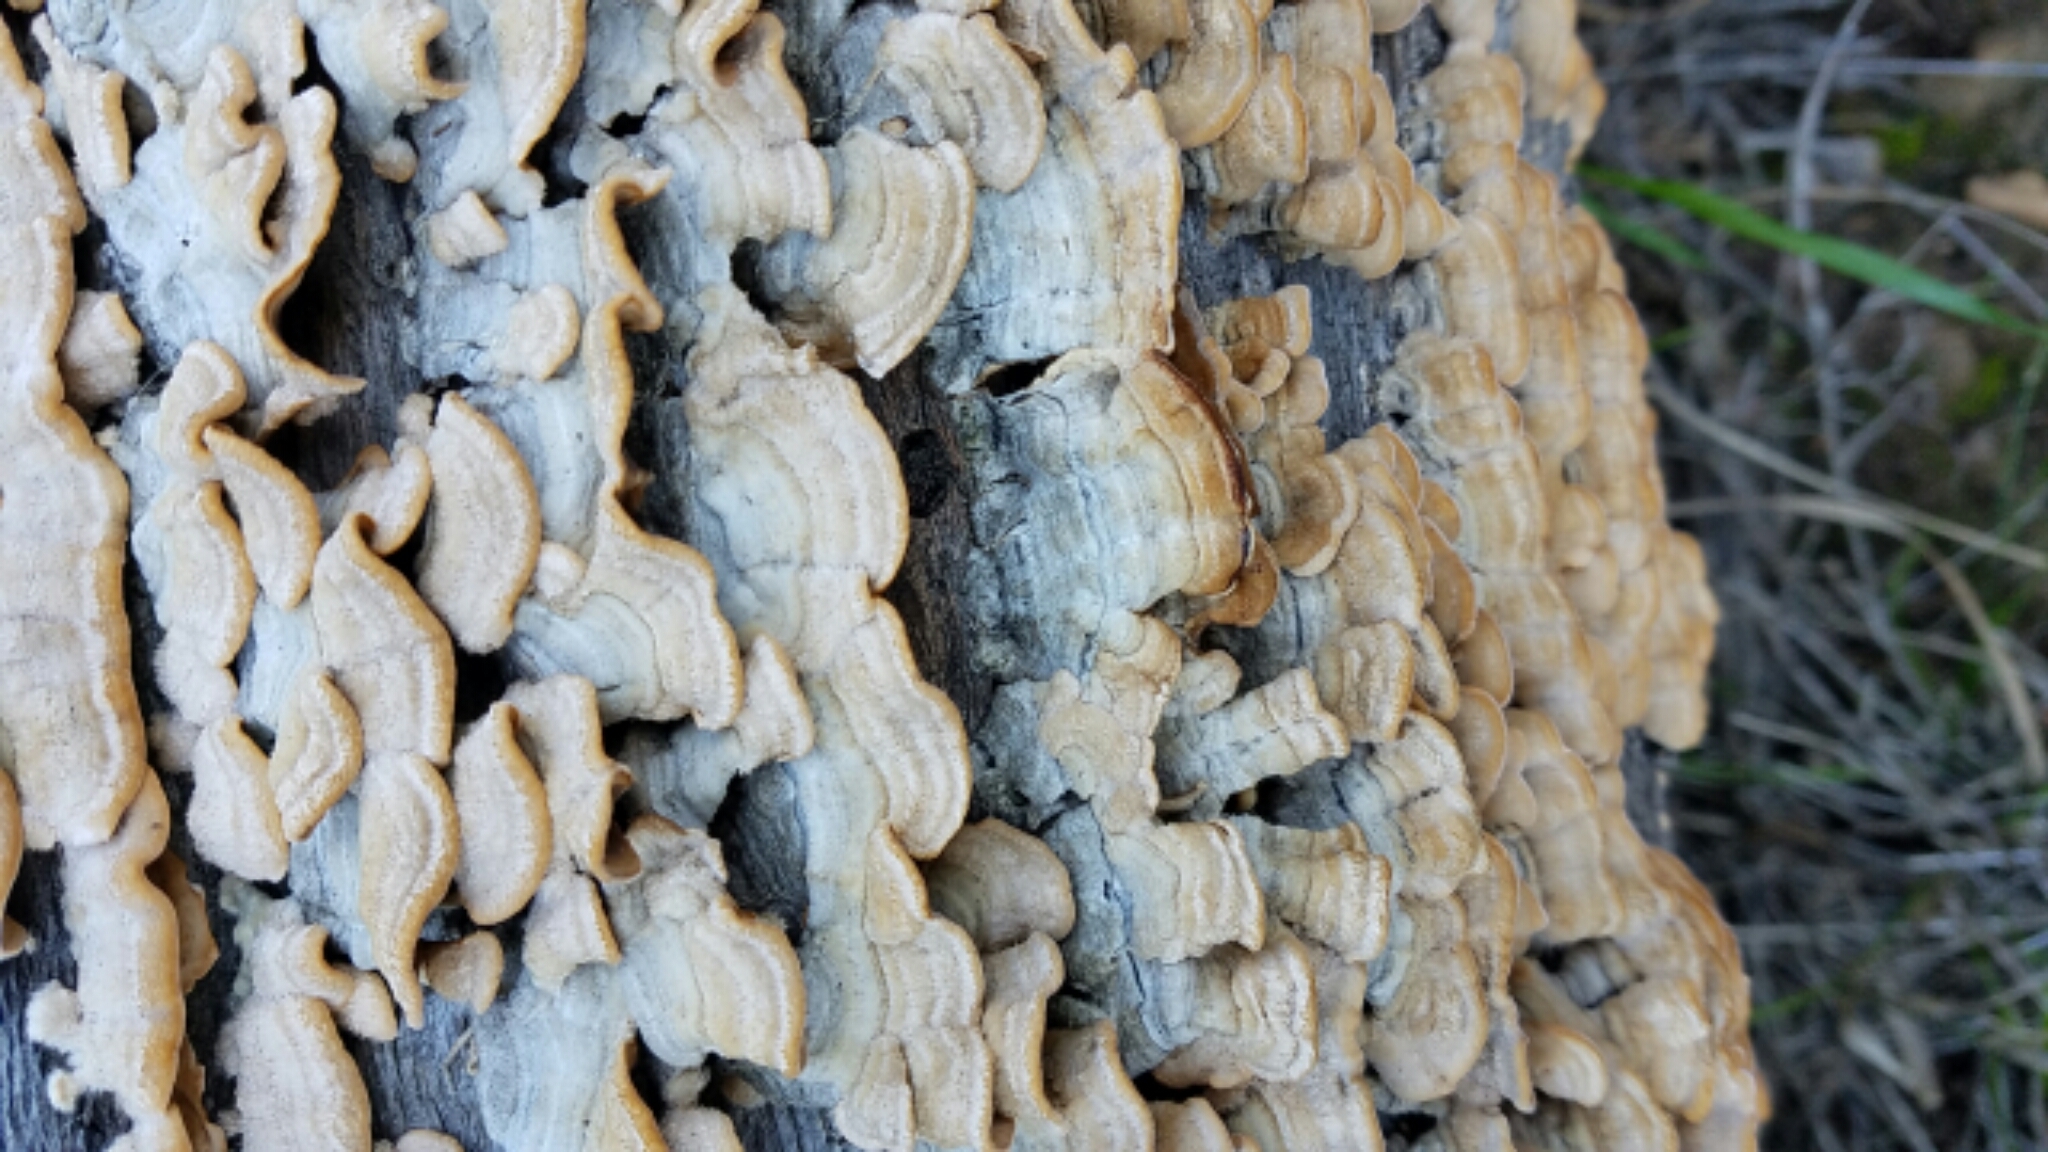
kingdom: Fungi
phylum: Basidiomycota
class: Agaricomycetes
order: Russulales
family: Stereaceae
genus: Stereum
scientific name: Stereum hirsutum
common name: Hairy curtain crust
